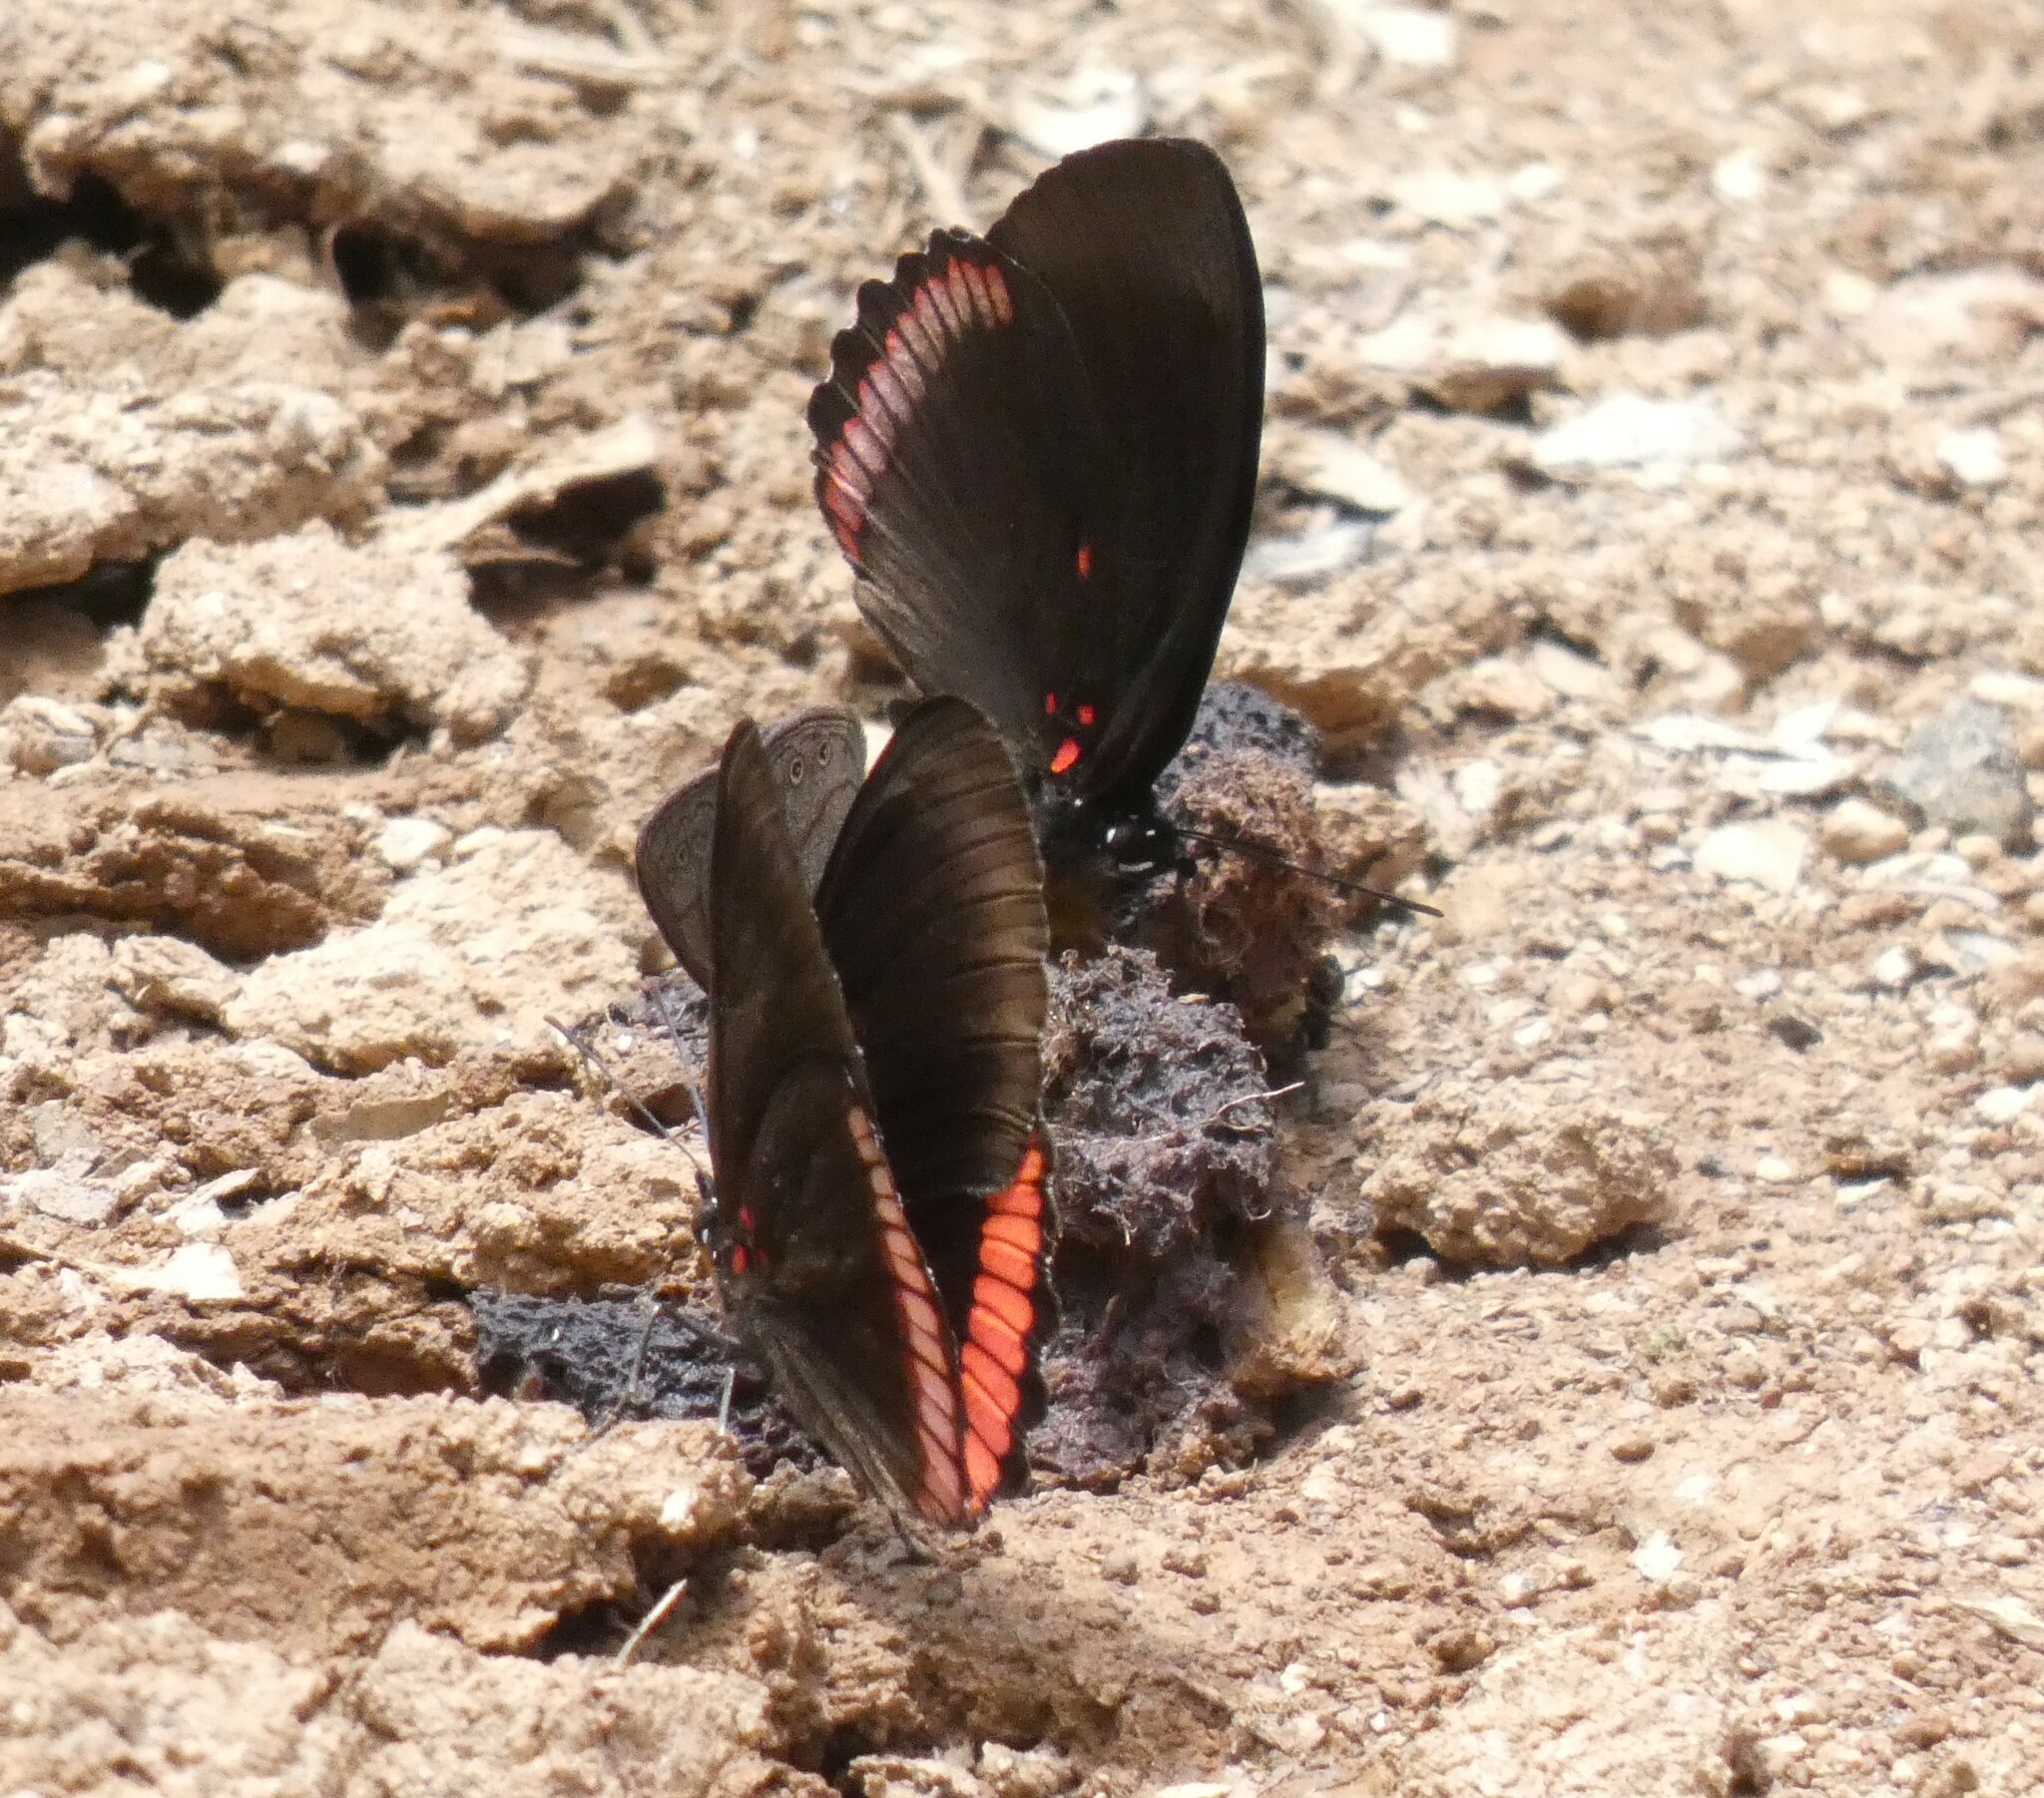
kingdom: Animalia
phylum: Arthropoda
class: Insecta
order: Lepidoptera
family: Sesiidae
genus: Sesia
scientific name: Sesia Biblis hyperia
